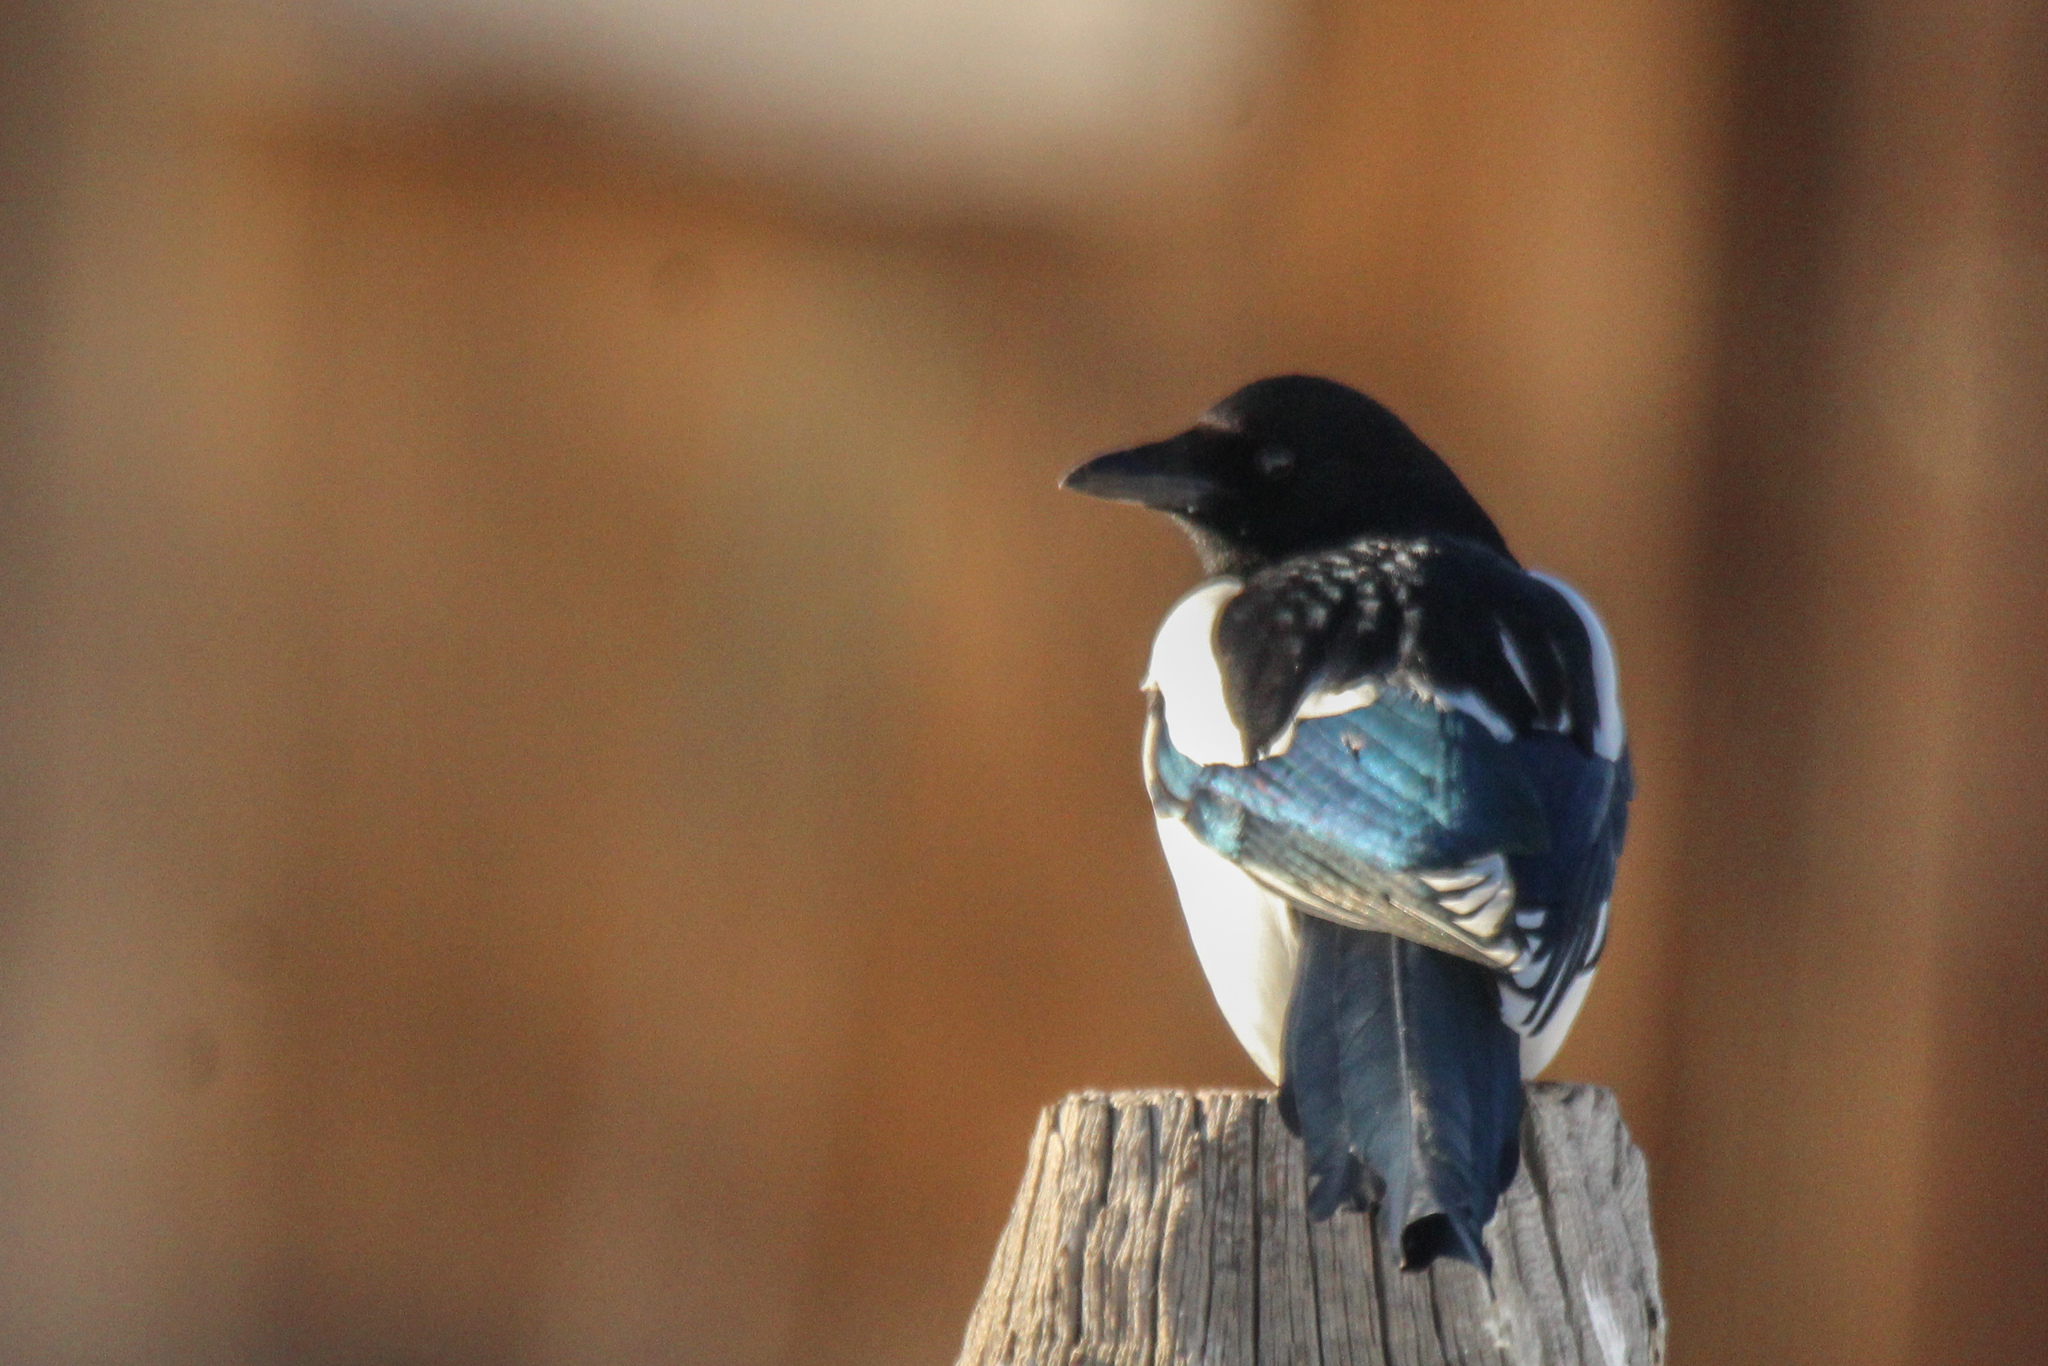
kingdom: Animalia
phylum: Chordata
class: Aves
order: Passeriformes
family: Corvidae
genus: Pica
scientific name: Pica pica
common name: Eurasian magpie
